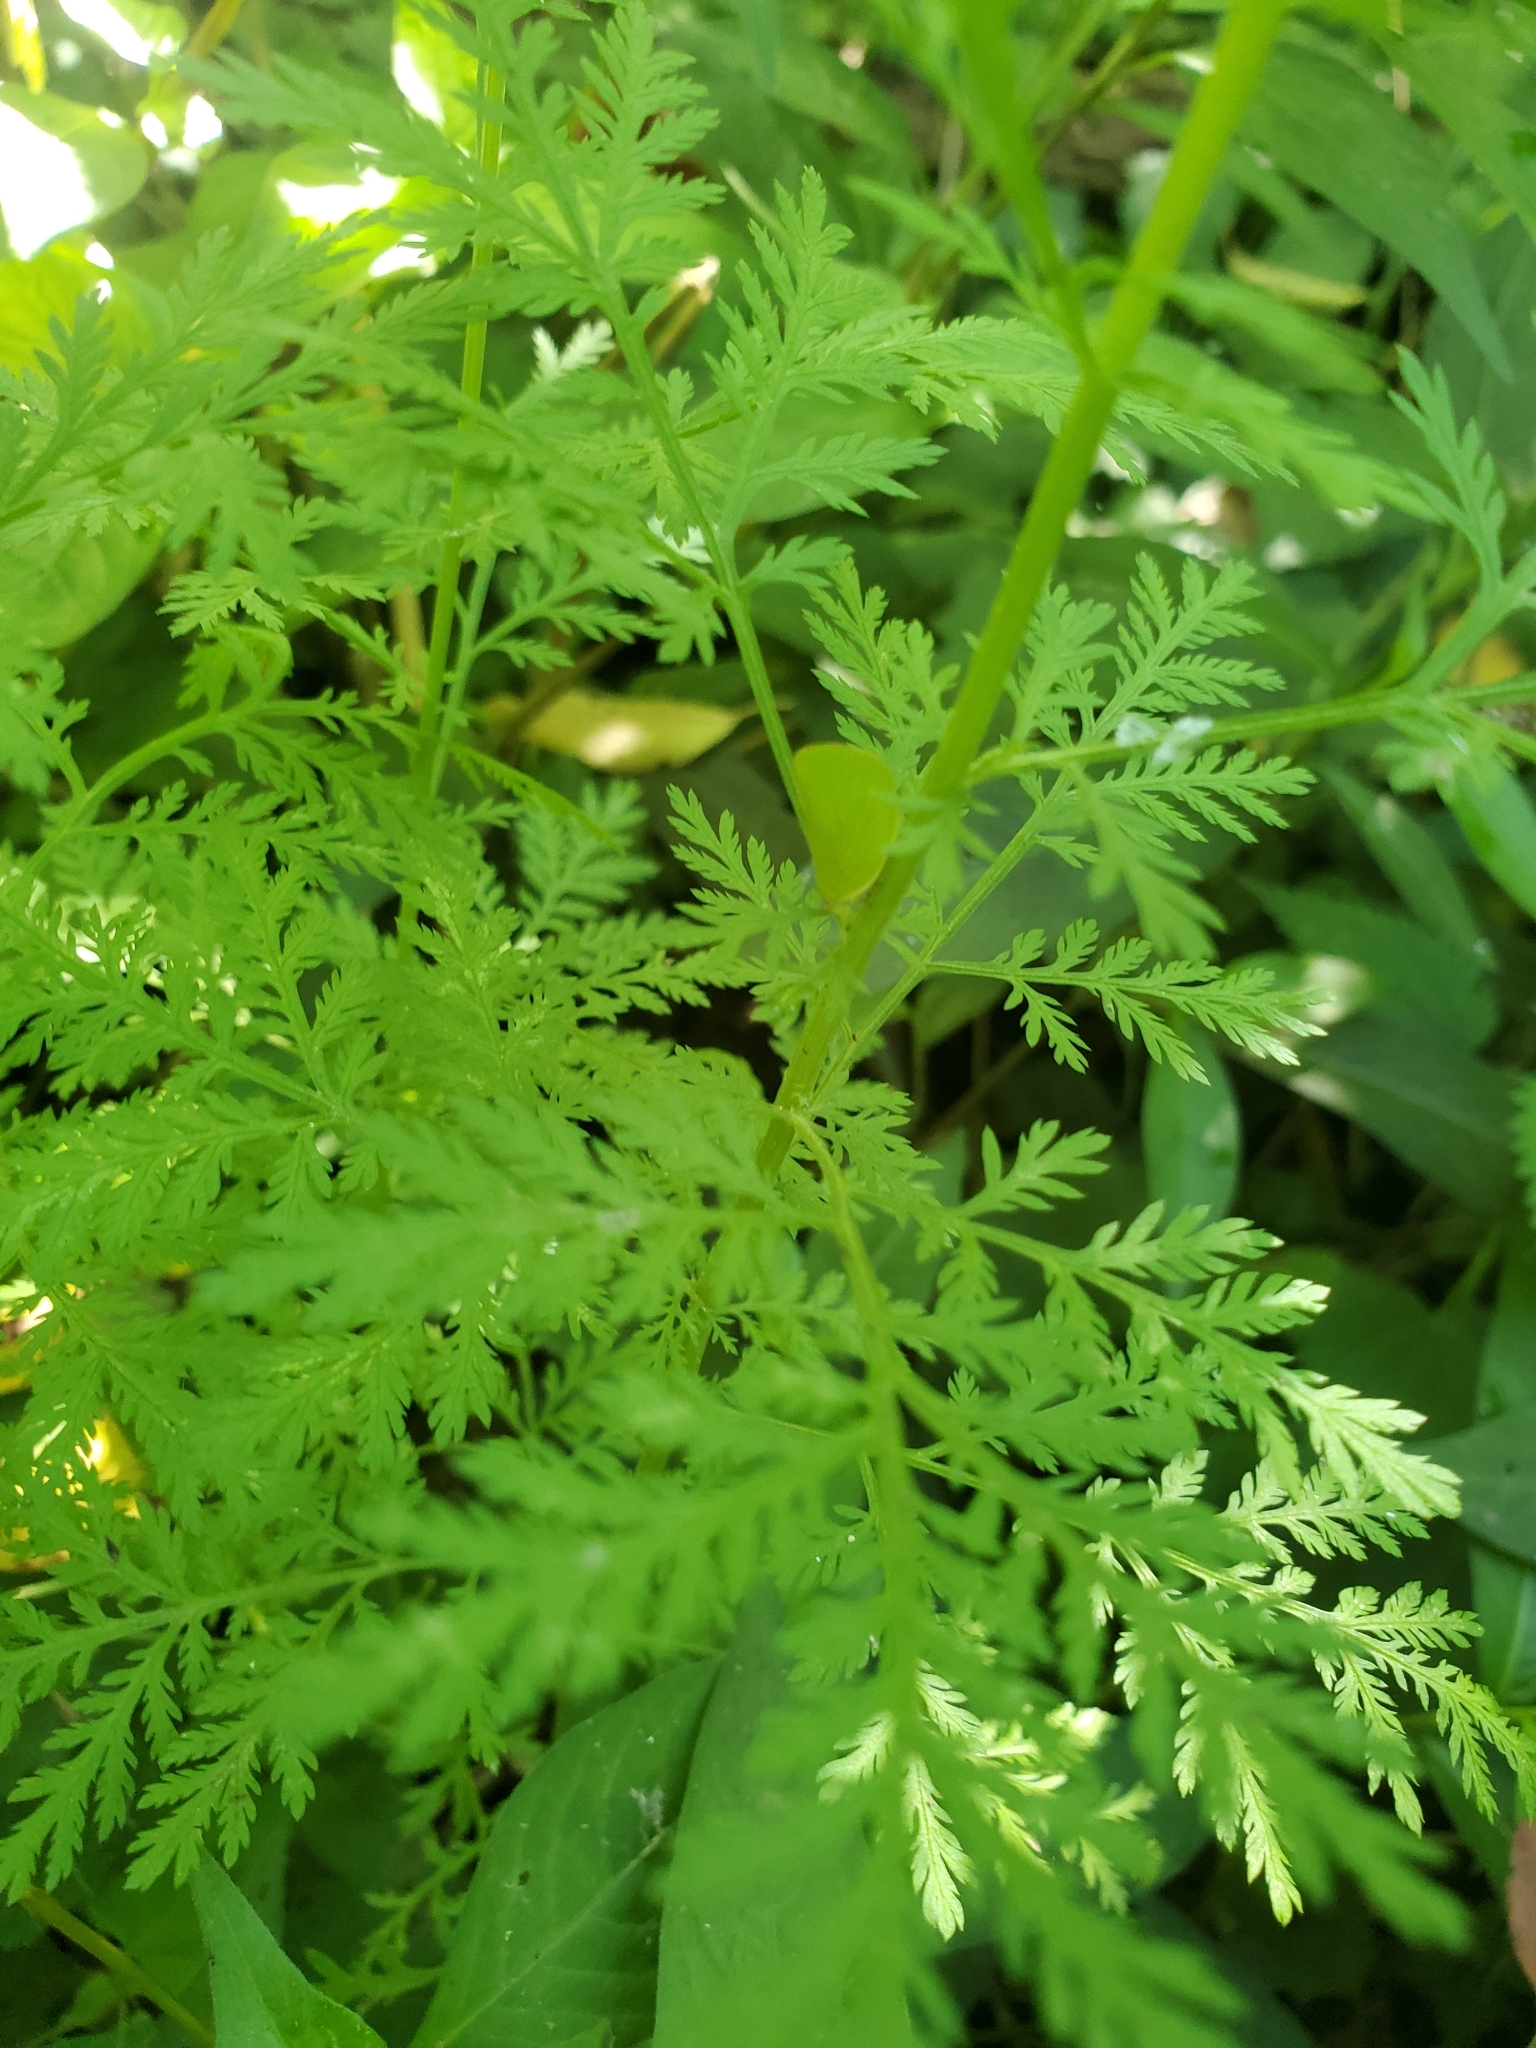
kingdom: Plantae
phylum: Tracheophyta
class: Magnoliopsida
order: Asterales
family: Asteraceae
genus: Artemisia
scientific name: Artemisia annua
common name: Sweet sagewort
